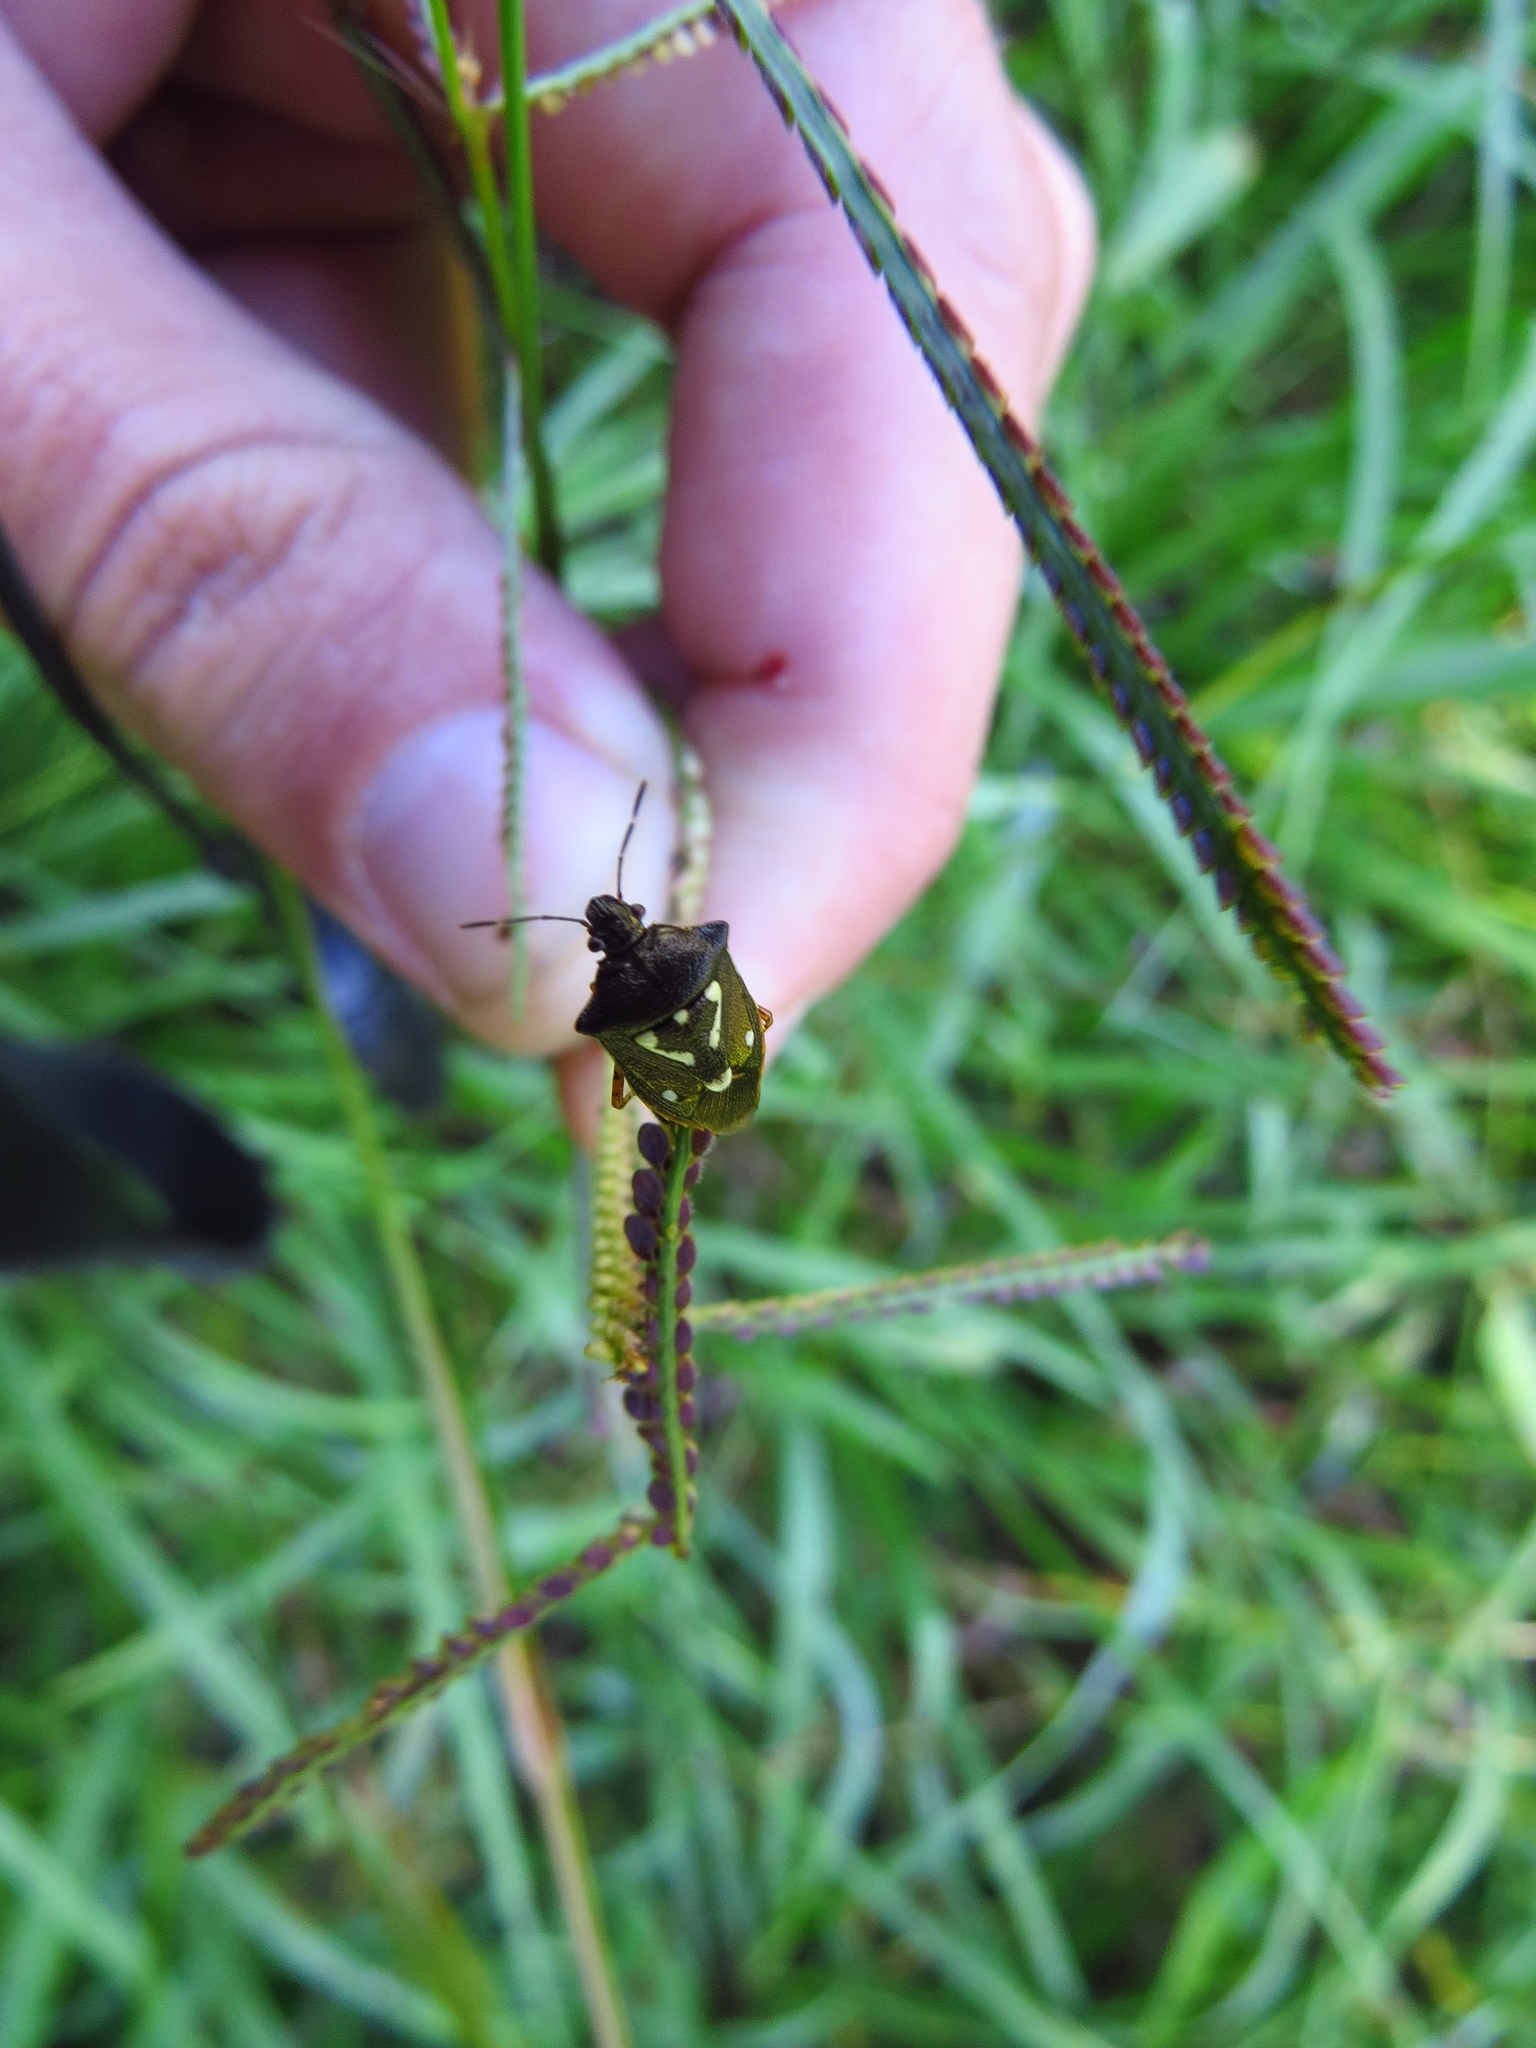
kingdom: Animalia
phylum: Arthropoda
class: Insecta
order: Hemiptera
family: Pentatomidae
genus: Mormidea
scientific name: Mormidea v-luteum
